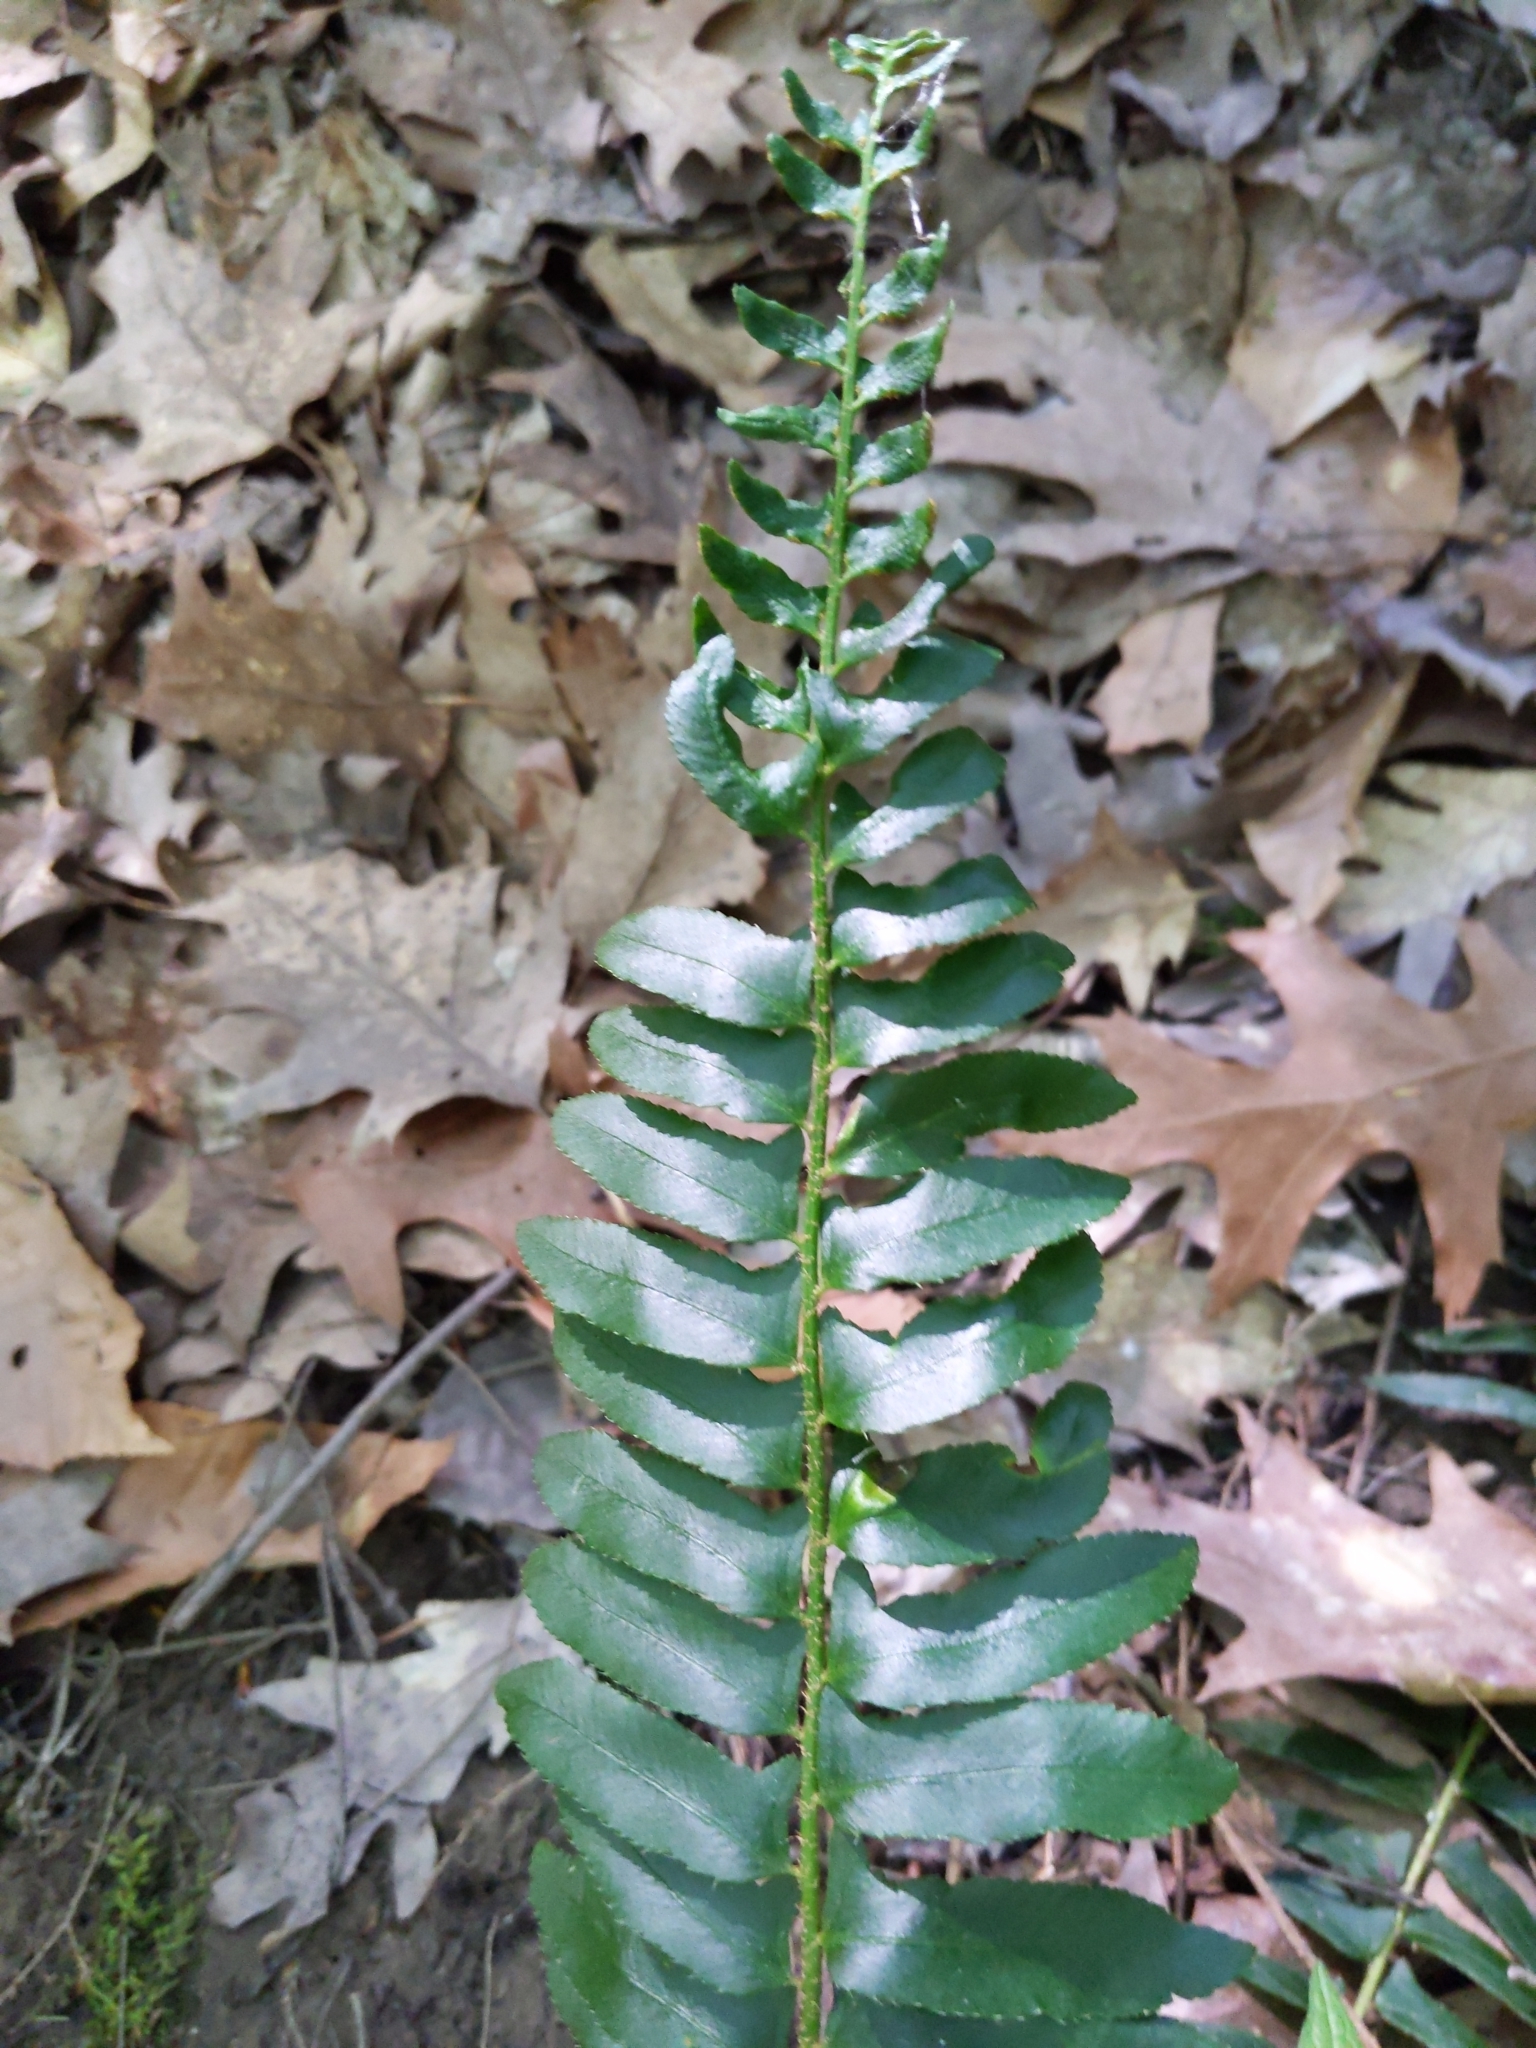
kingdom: Plantae
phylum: Tracheophyta
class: Polypodiopsida
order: Polypodiales
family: Dryopteridaceae
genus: Polystichum
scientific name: Polystichum acrostichoides
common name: Christmas fern
